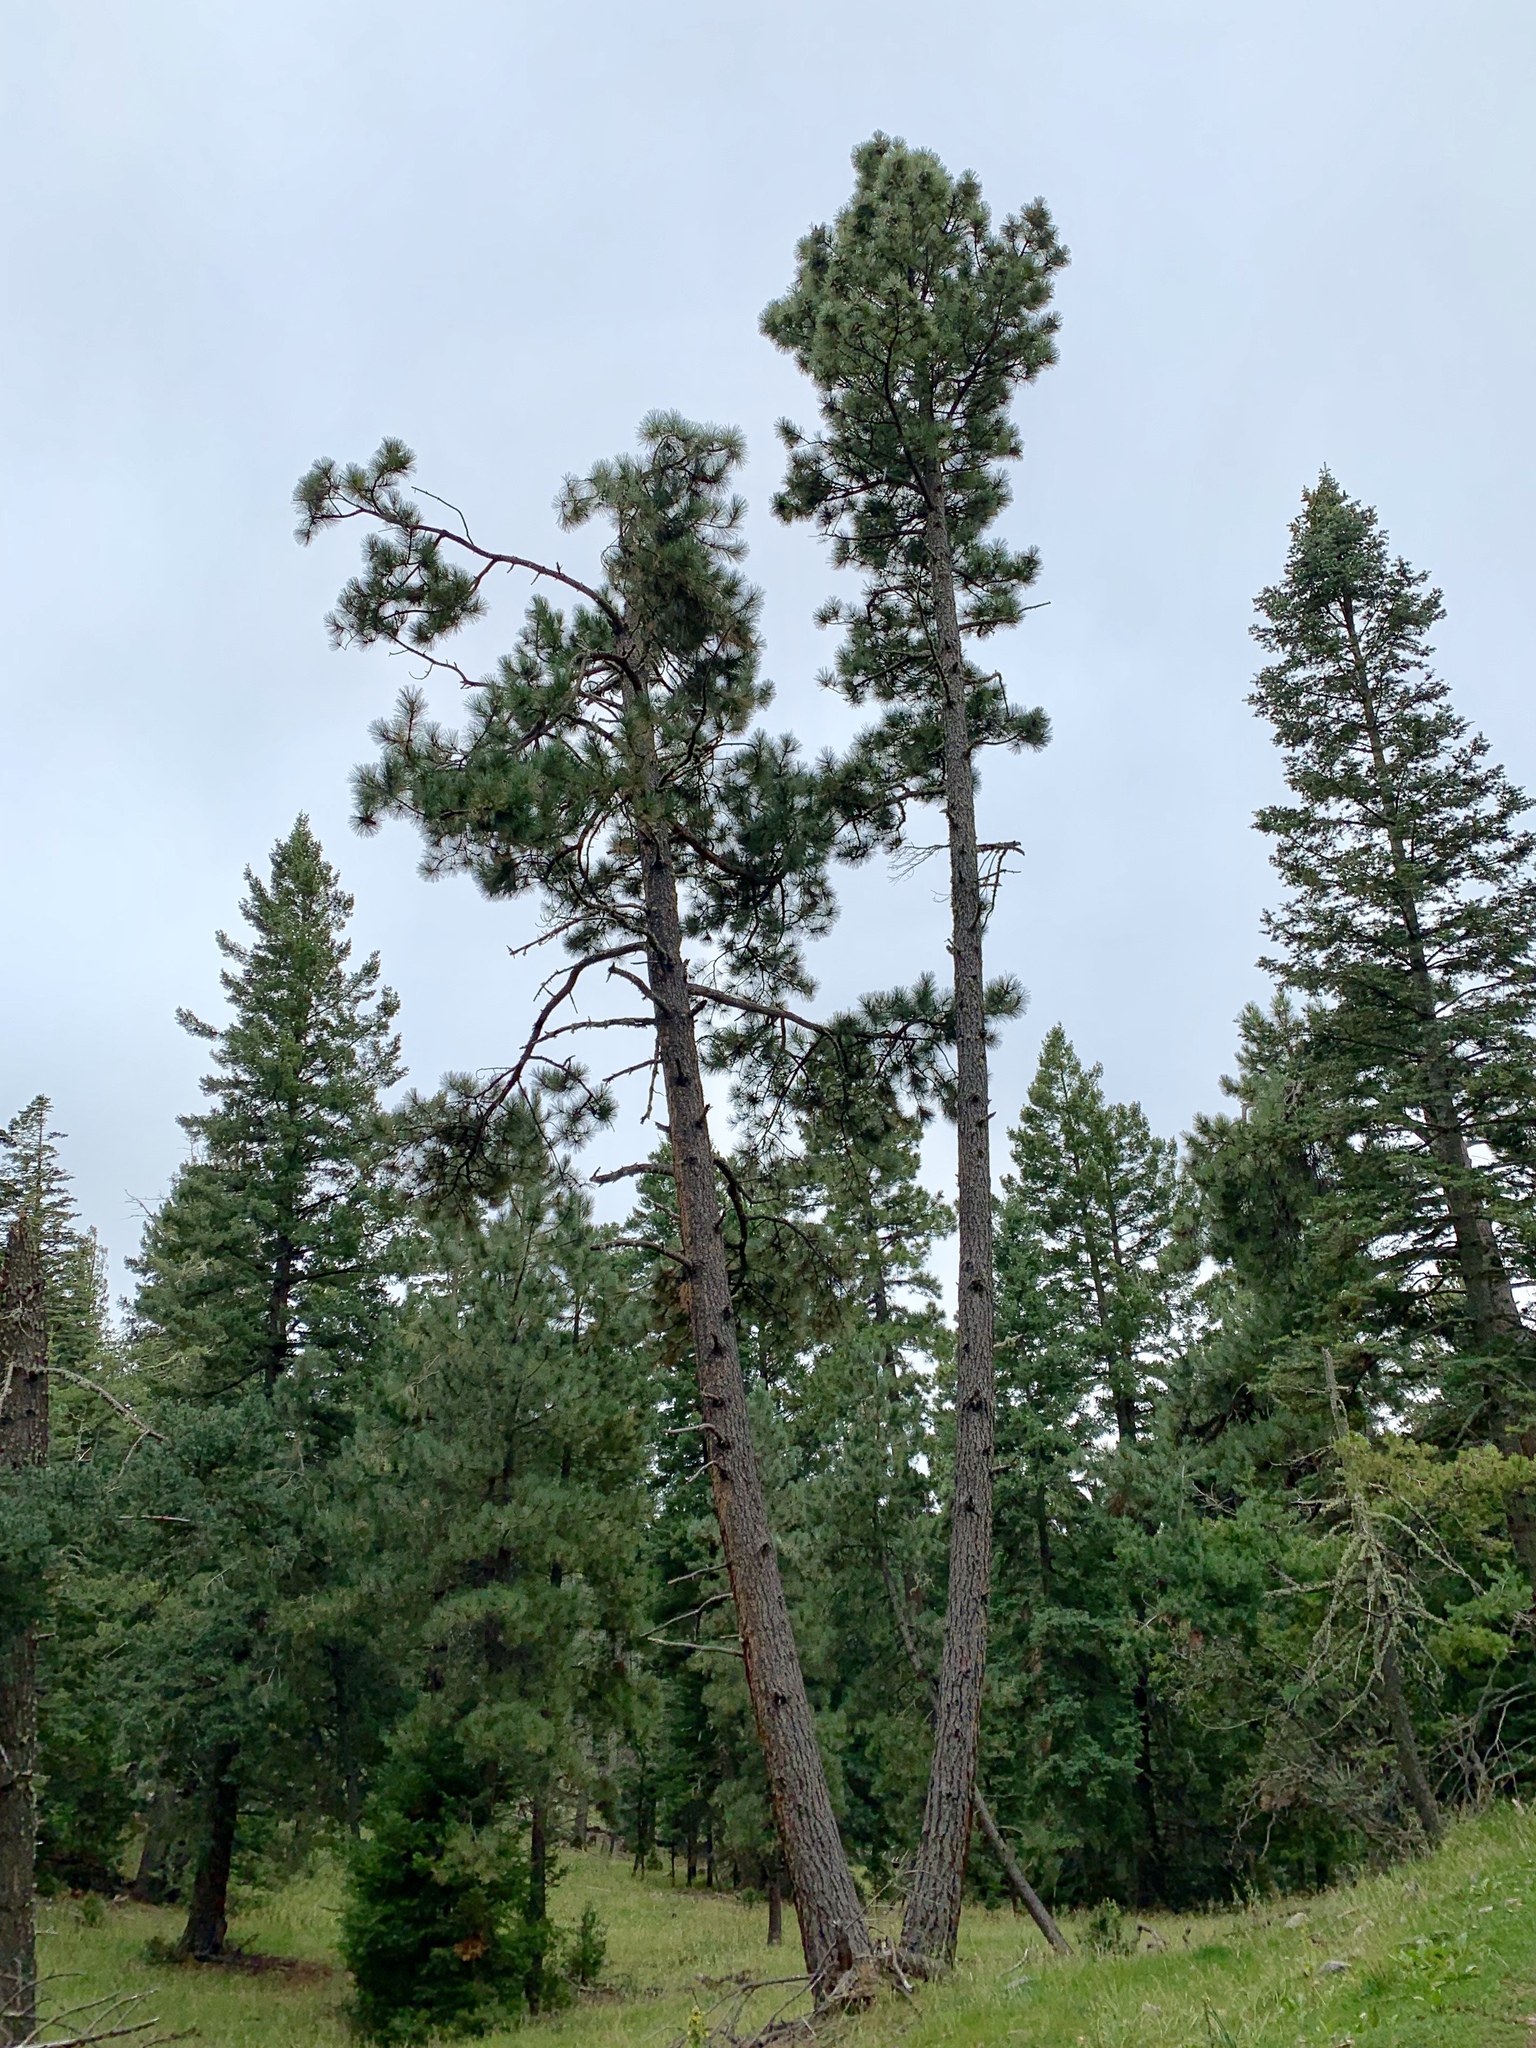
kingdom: Plantae
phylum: Tracheophyta
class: Pinopsida
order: Pinales
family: Pinaceae
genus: Pinus
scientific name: Pinus ponderosa
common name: Western yellow-pine
